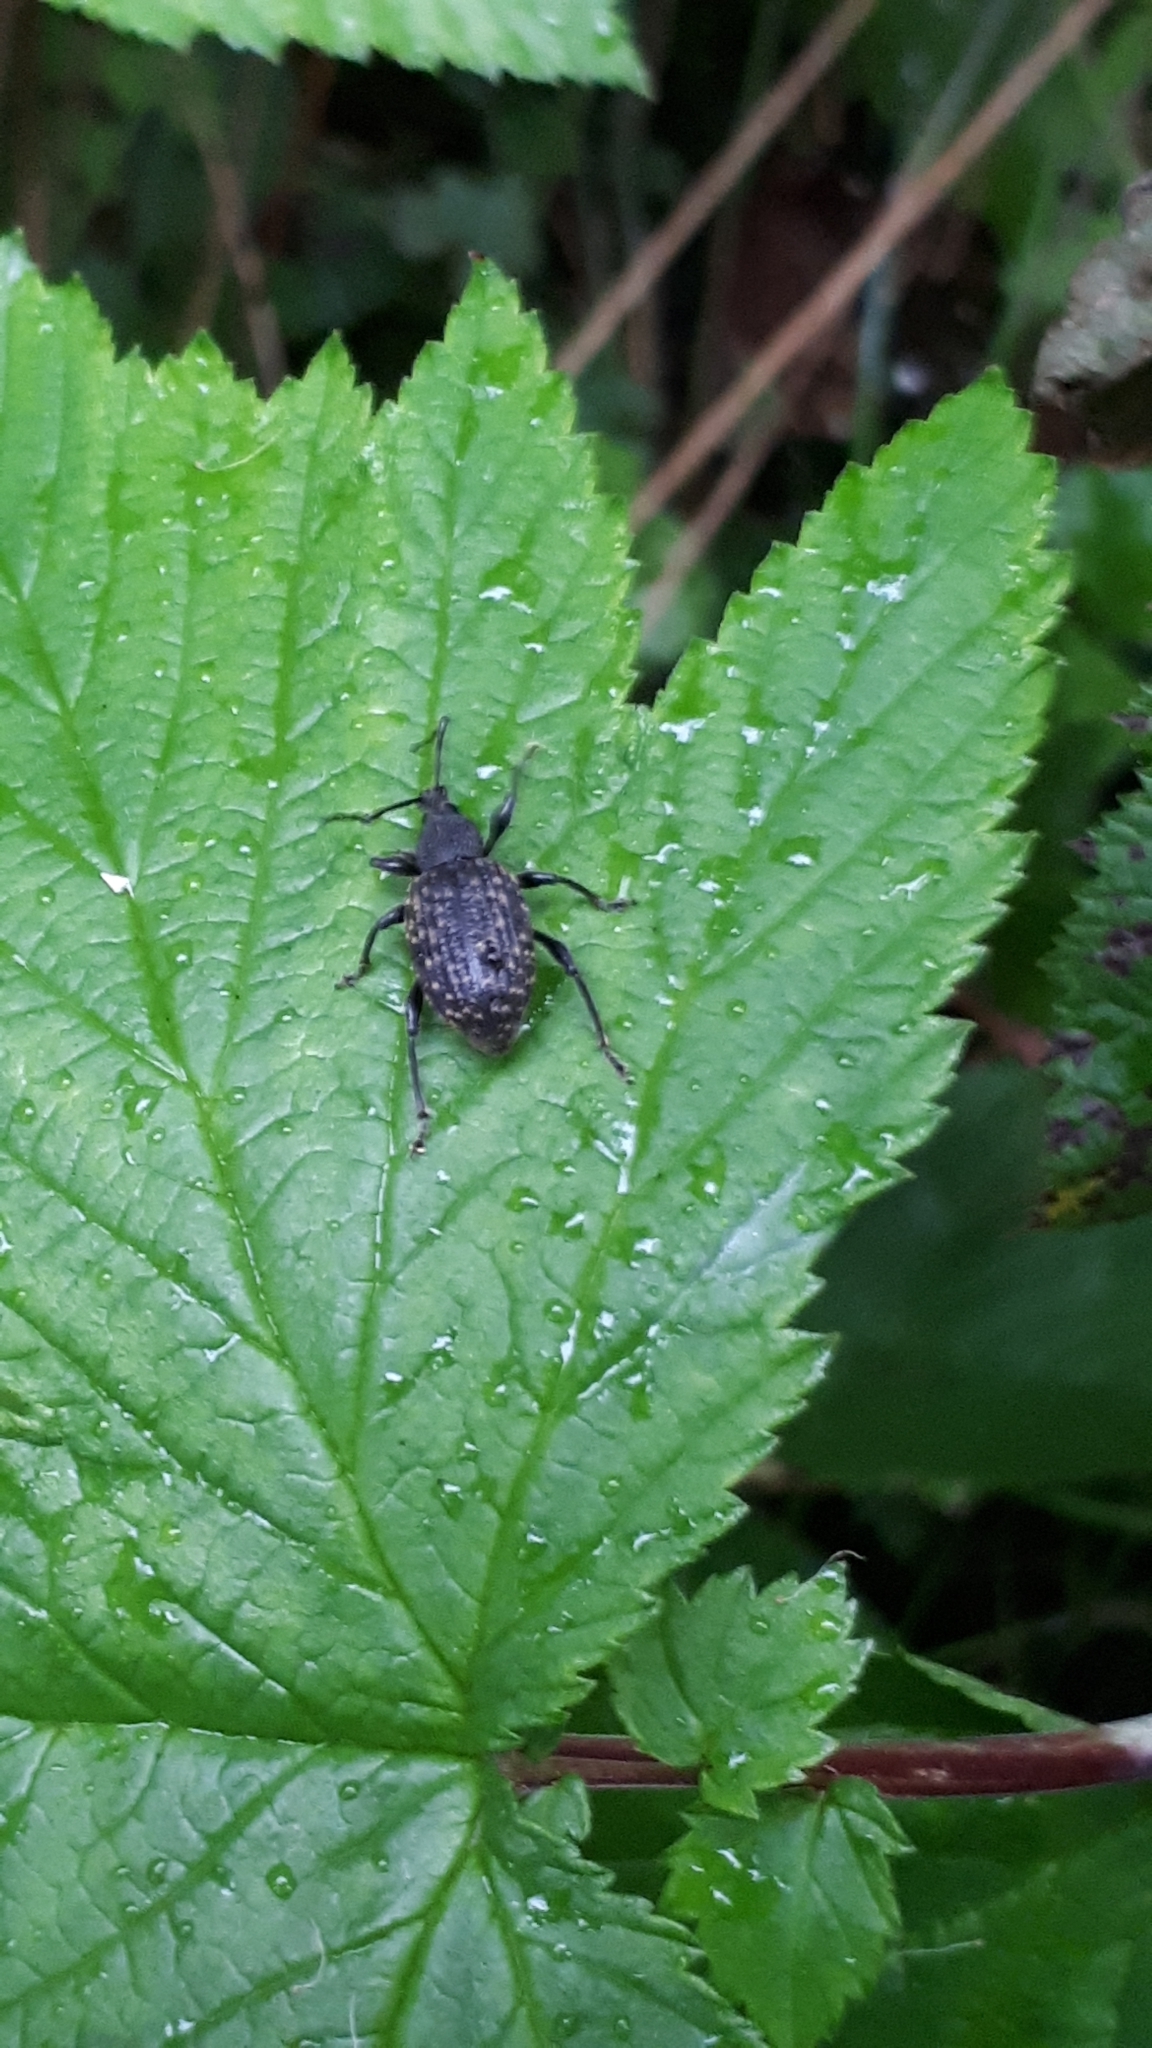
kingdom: Animalia
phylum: Arthropoda
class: Insecta
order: Coleoptera
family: Curculionidae
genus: Otiorhynchus
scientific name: Otiorhynchus sulcatus
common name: Black vine weevil
